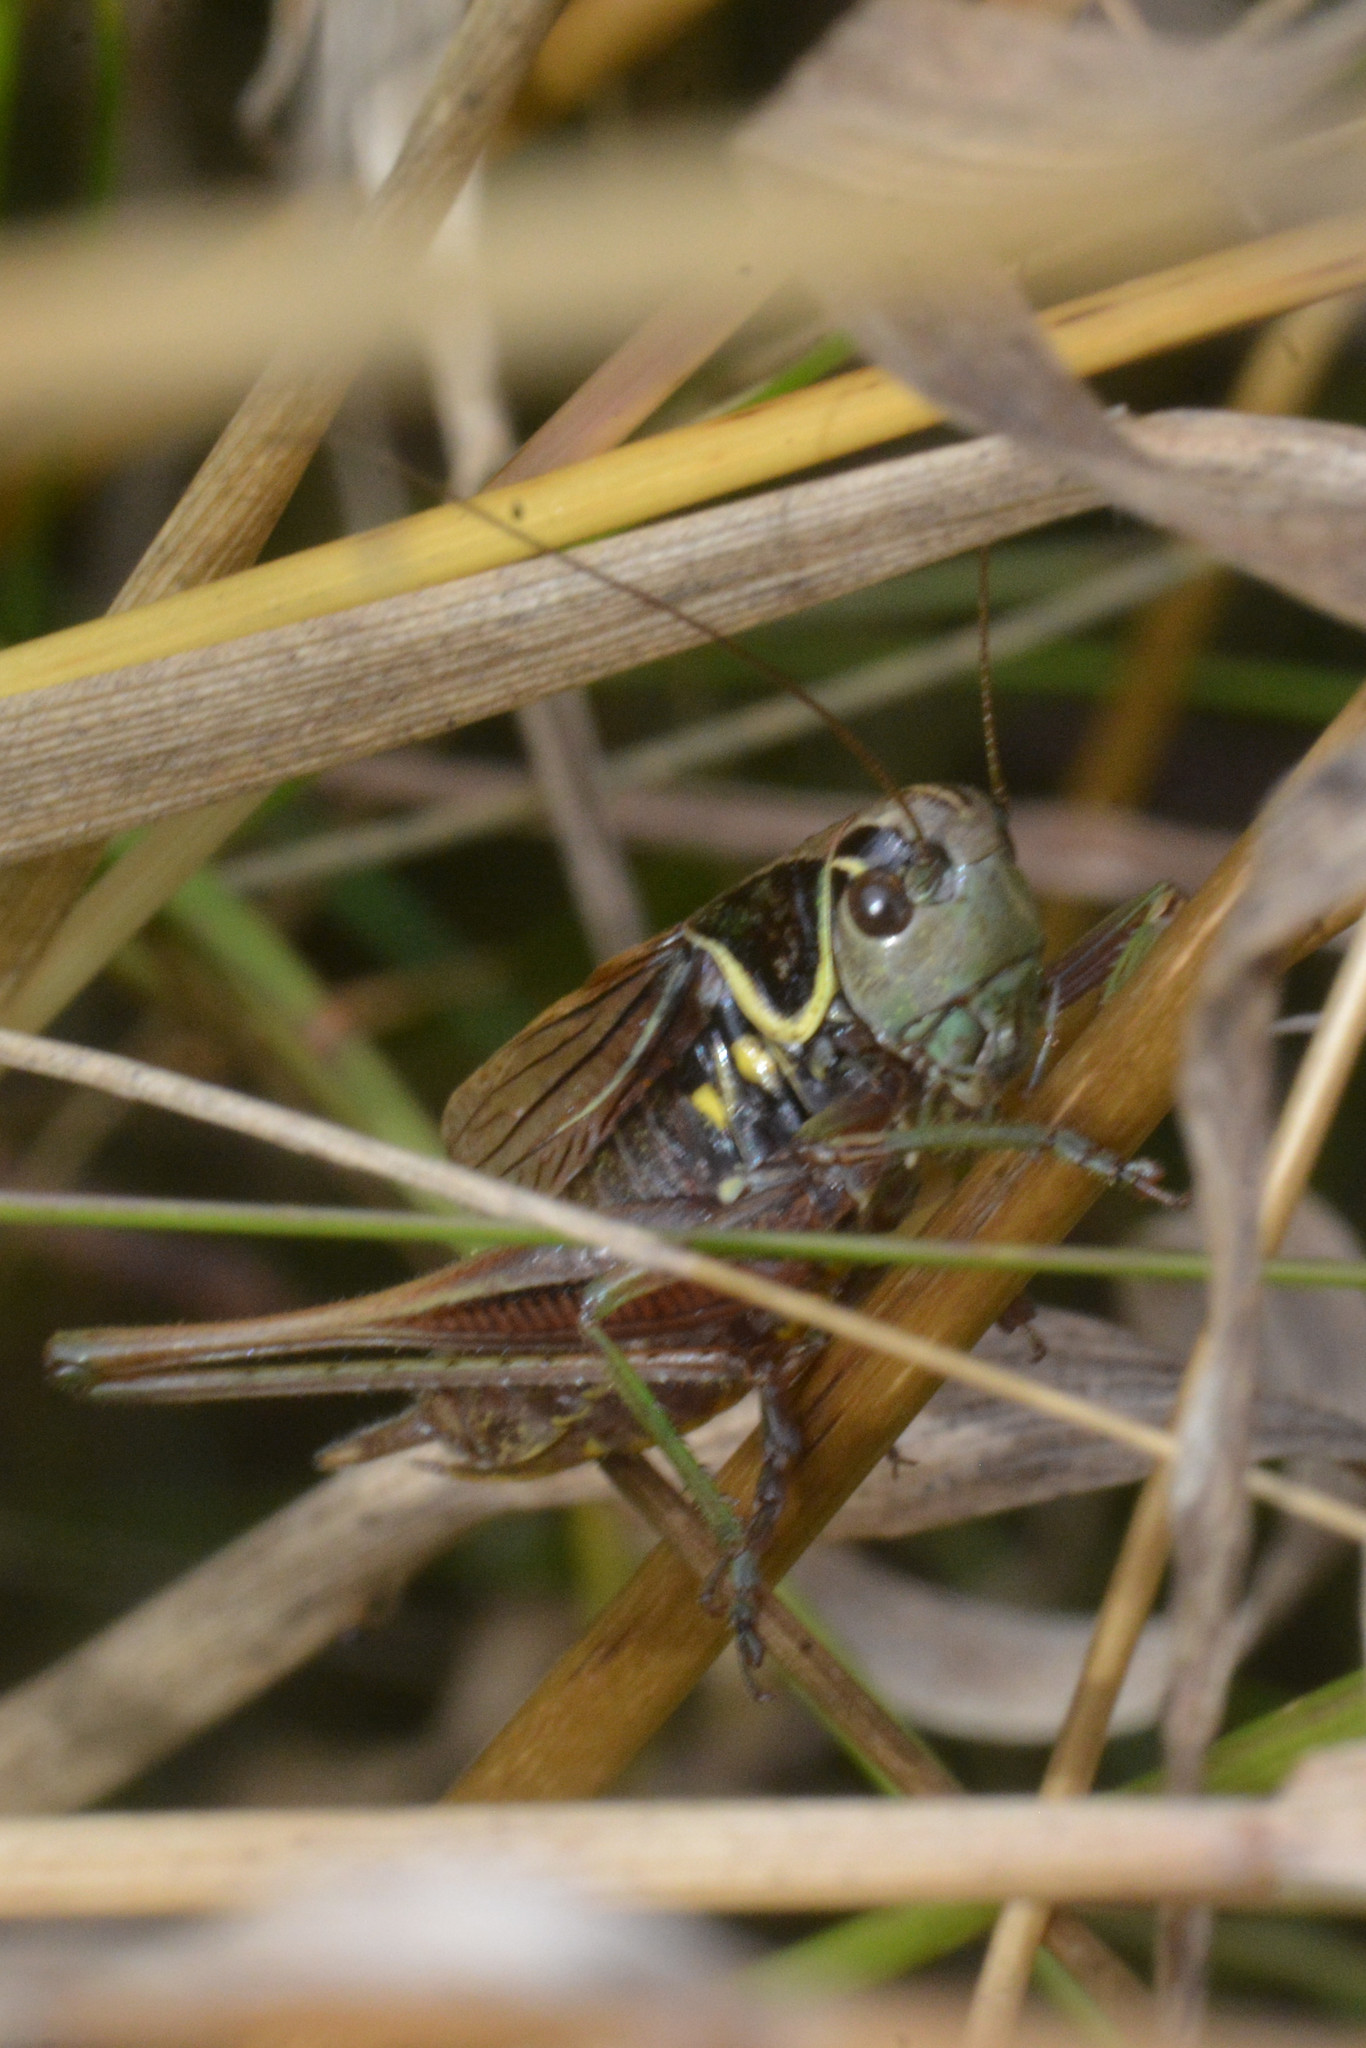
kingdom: Animalia
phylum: Arthropoda
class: Insecta
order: Orthoptera
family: Tettigoniidae
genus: Roeseliana
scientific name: Roeseliana roeselii
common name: Roesel's bush cricket
